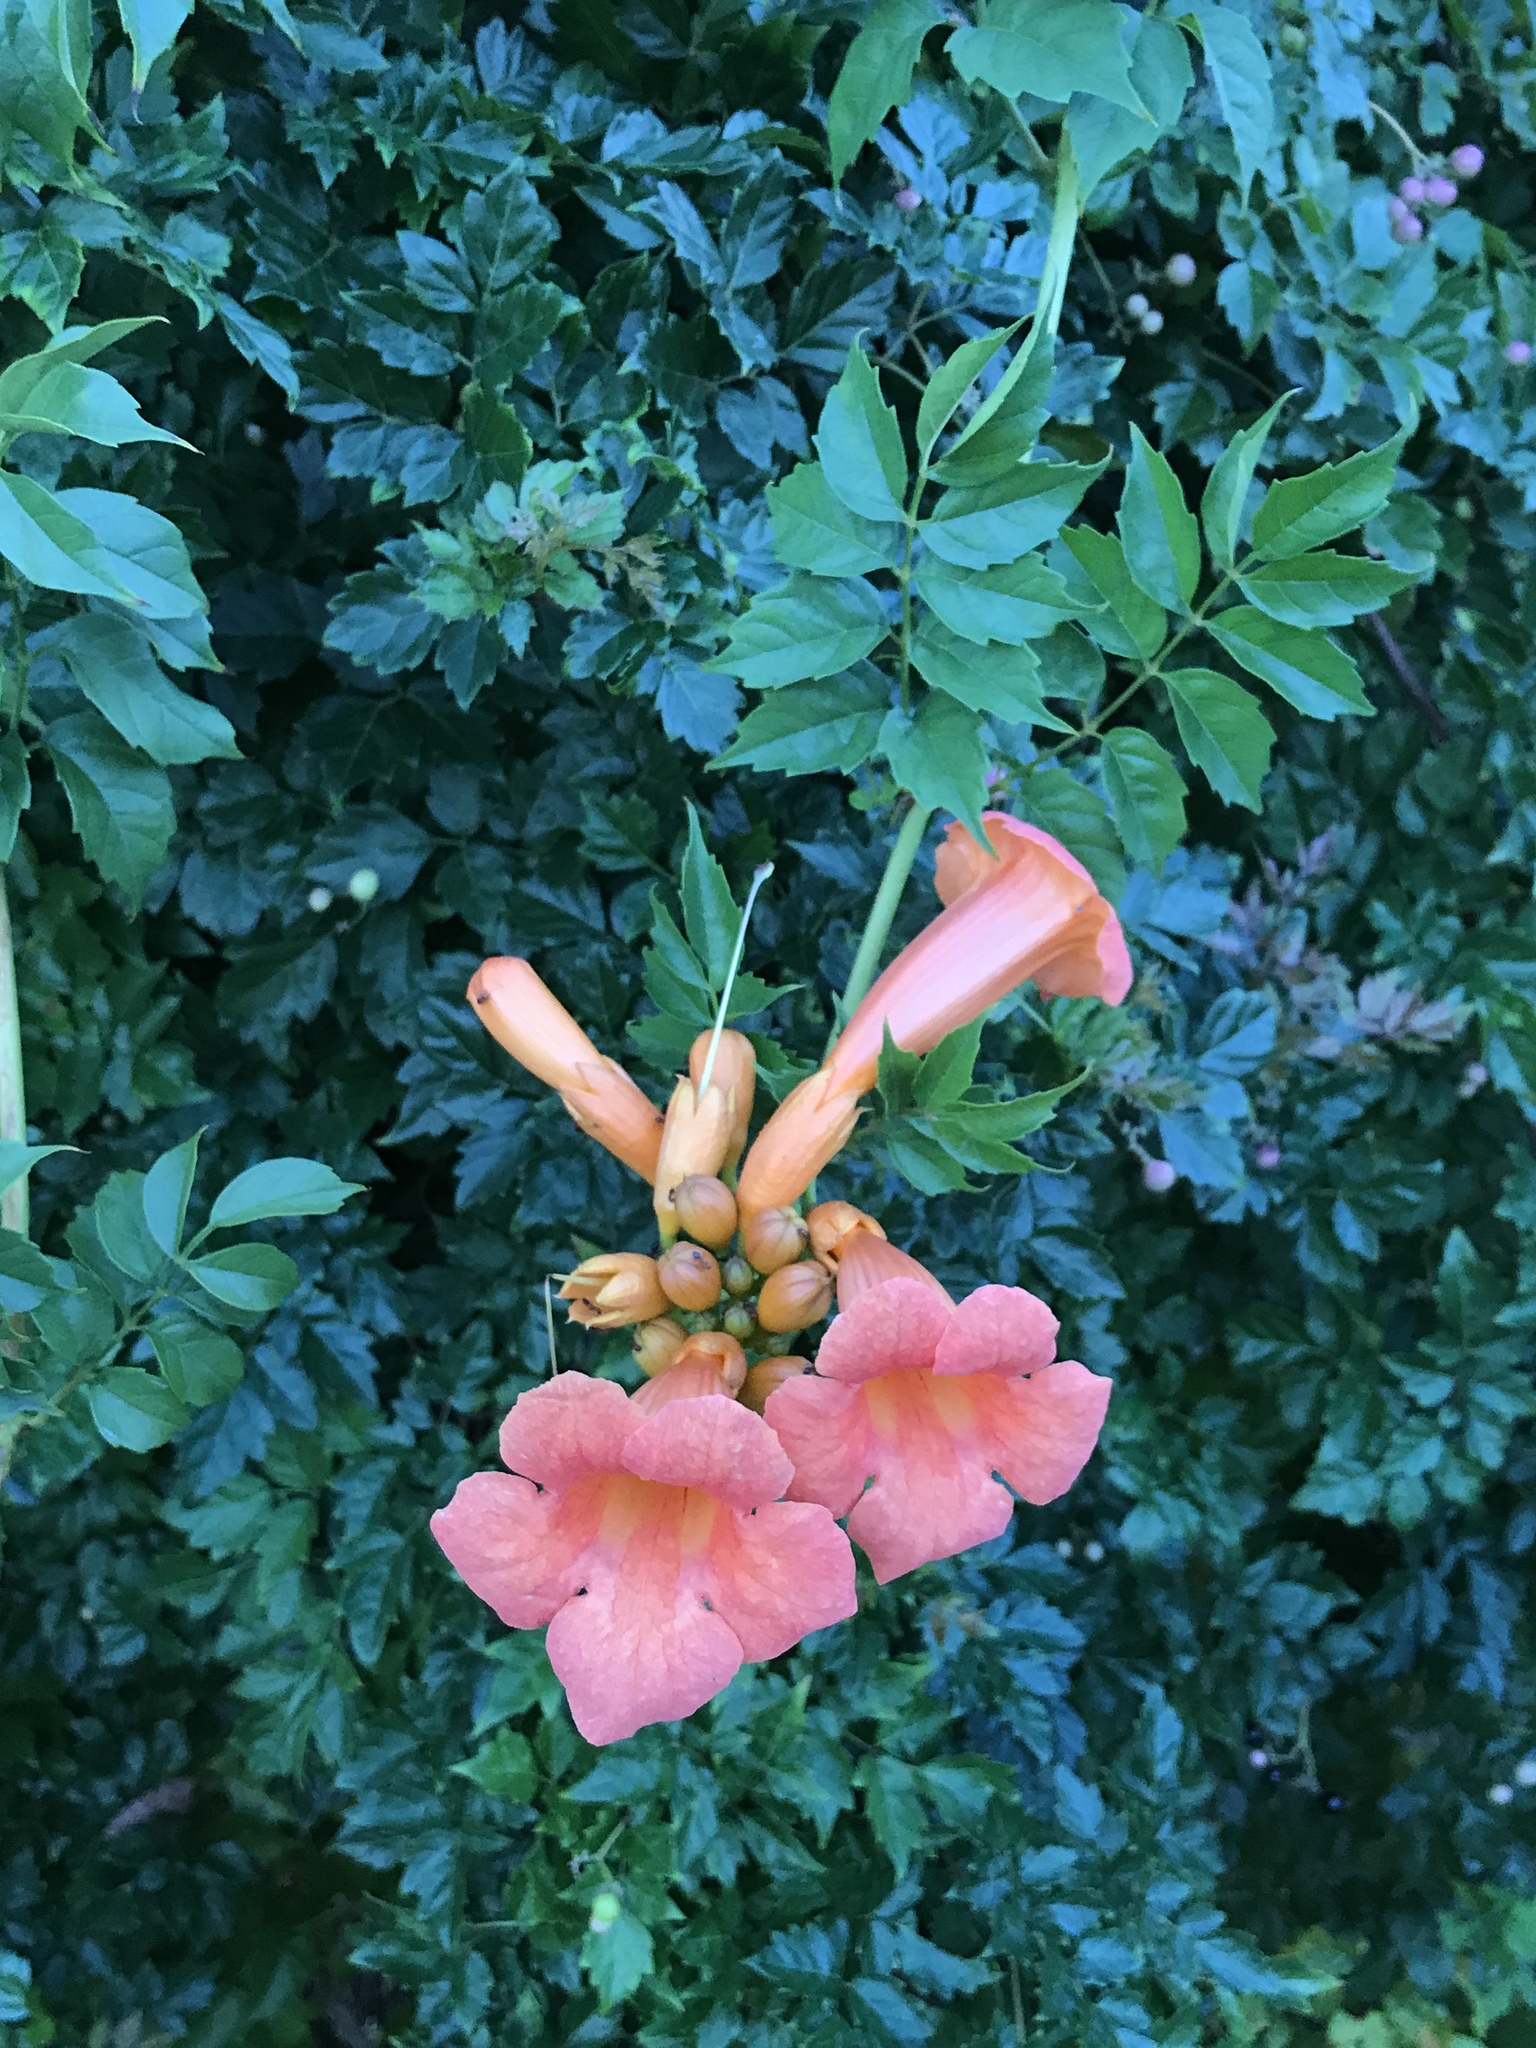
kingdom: Plantae
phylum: Tracheophyta
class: Magnoliopsida
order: Lamiales
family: Bignoniaceae
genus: Campsis
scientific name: Campsis radicans
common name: Trumpet-creeper
